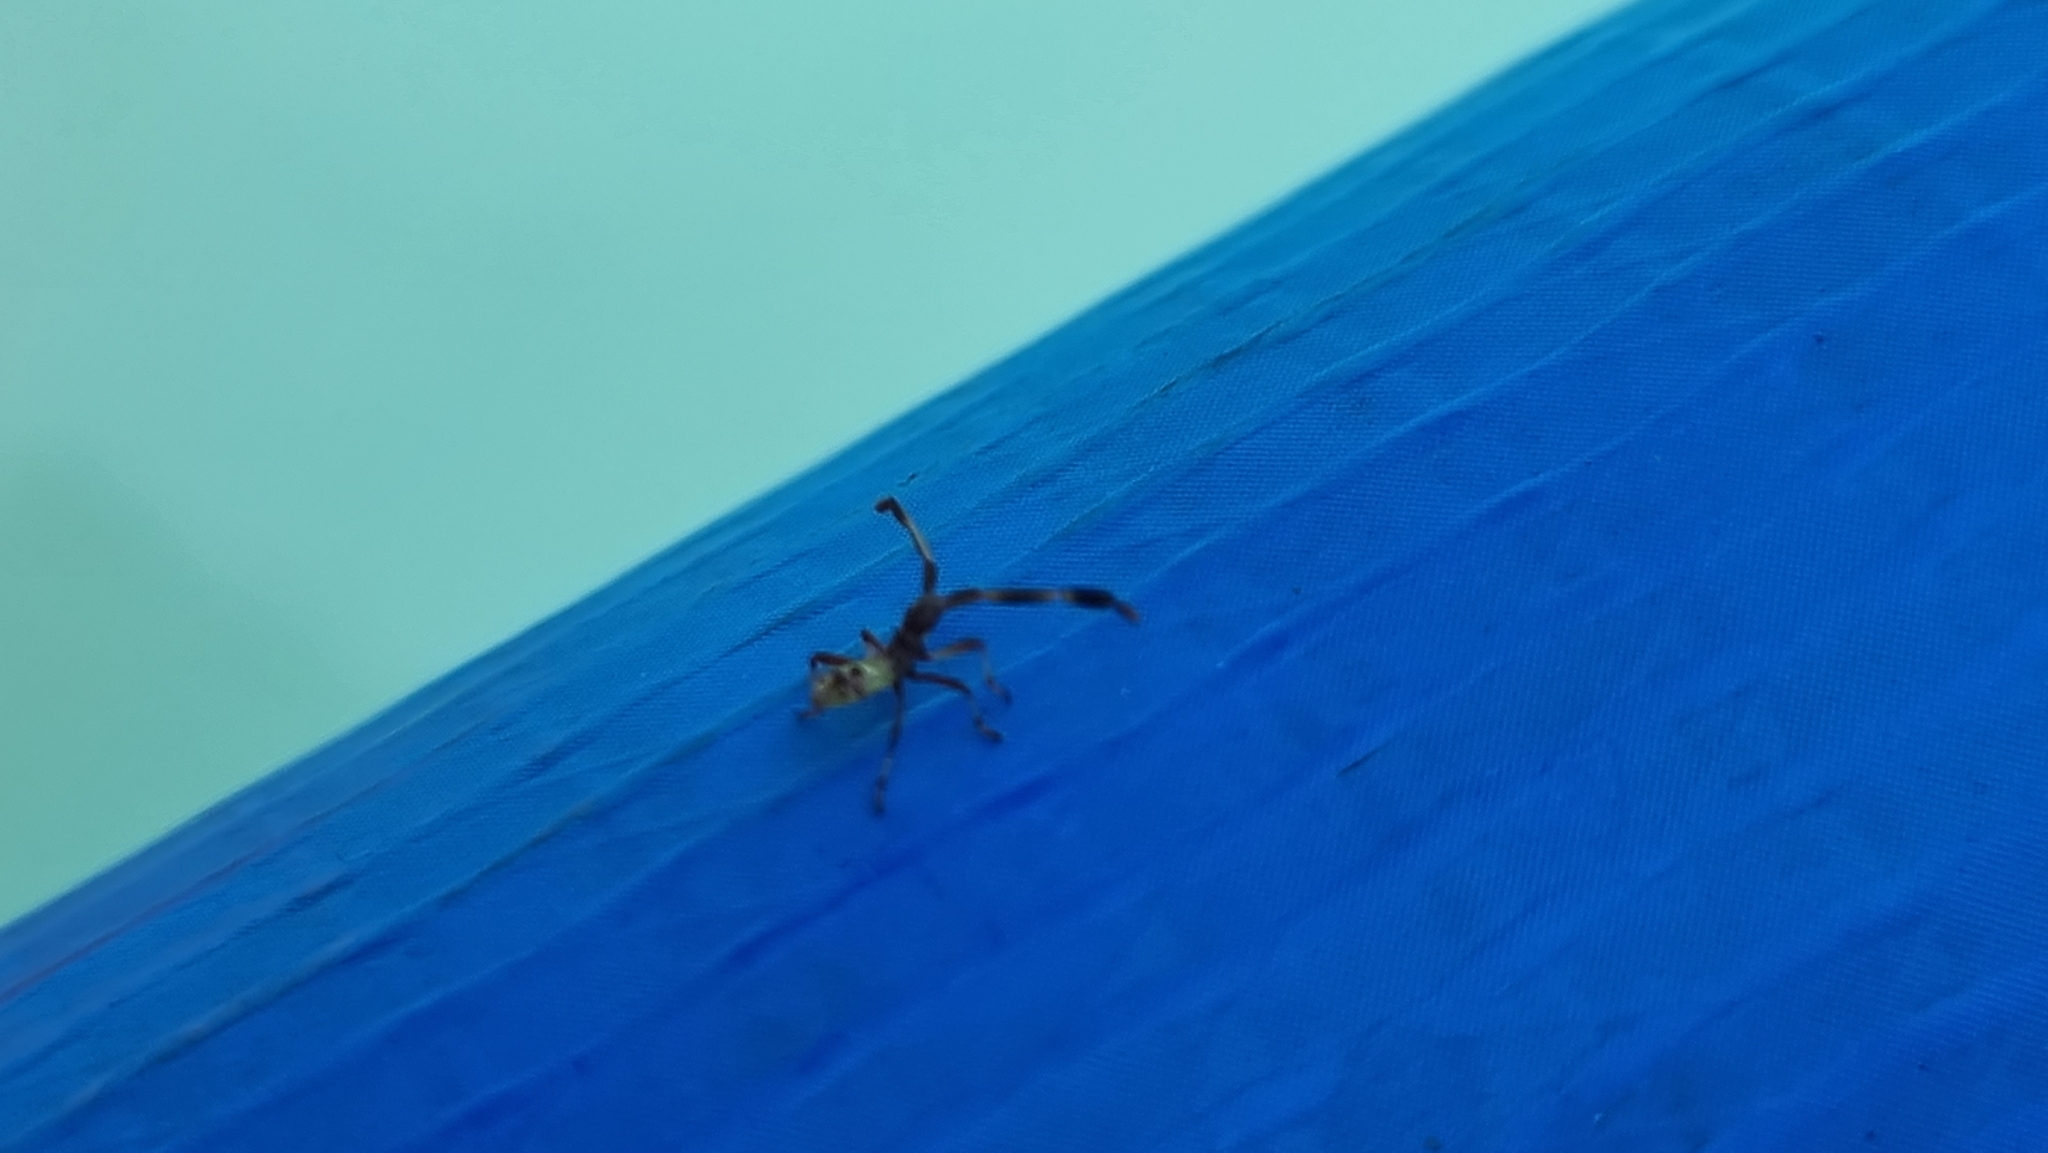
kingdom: Animalia
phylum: Arthropoda
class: Insecta
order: Hemiptera
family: Coreidae
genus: Gonocerus
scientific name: Gonocerus acuteangulatus
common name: Box bug
